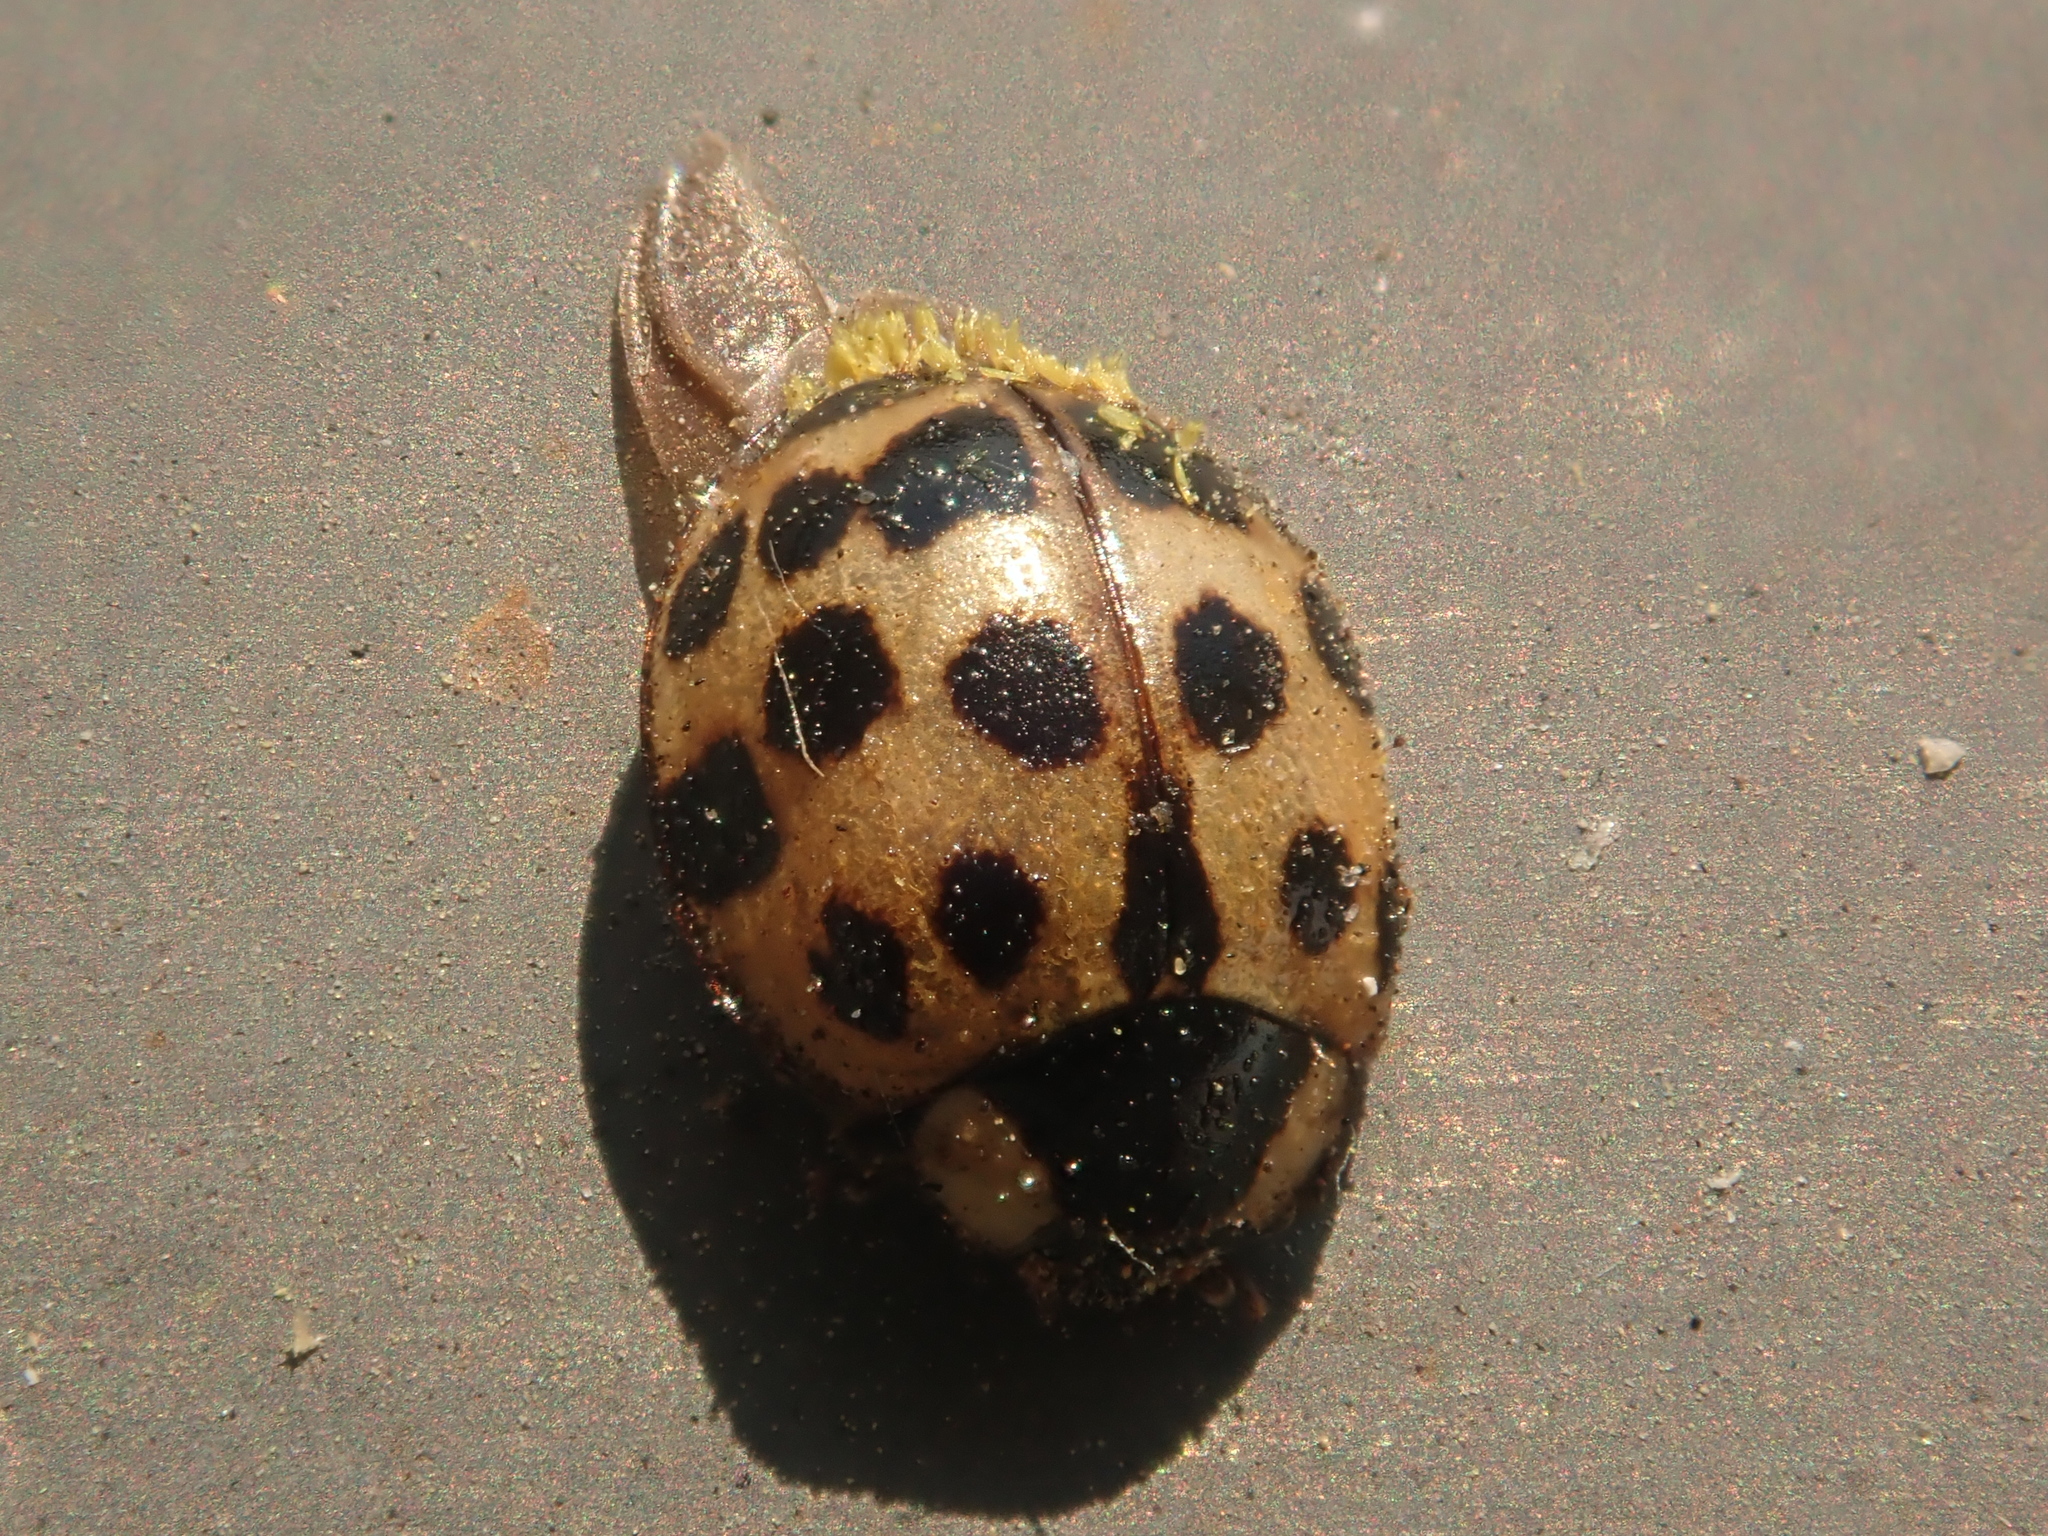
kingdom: Animalia
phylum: Arthropoda
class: Insecta
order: Coleoptera
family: Coccinellidae
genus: Harmonia
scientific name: Harmonia axyridis
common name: Harlequin ladybird
